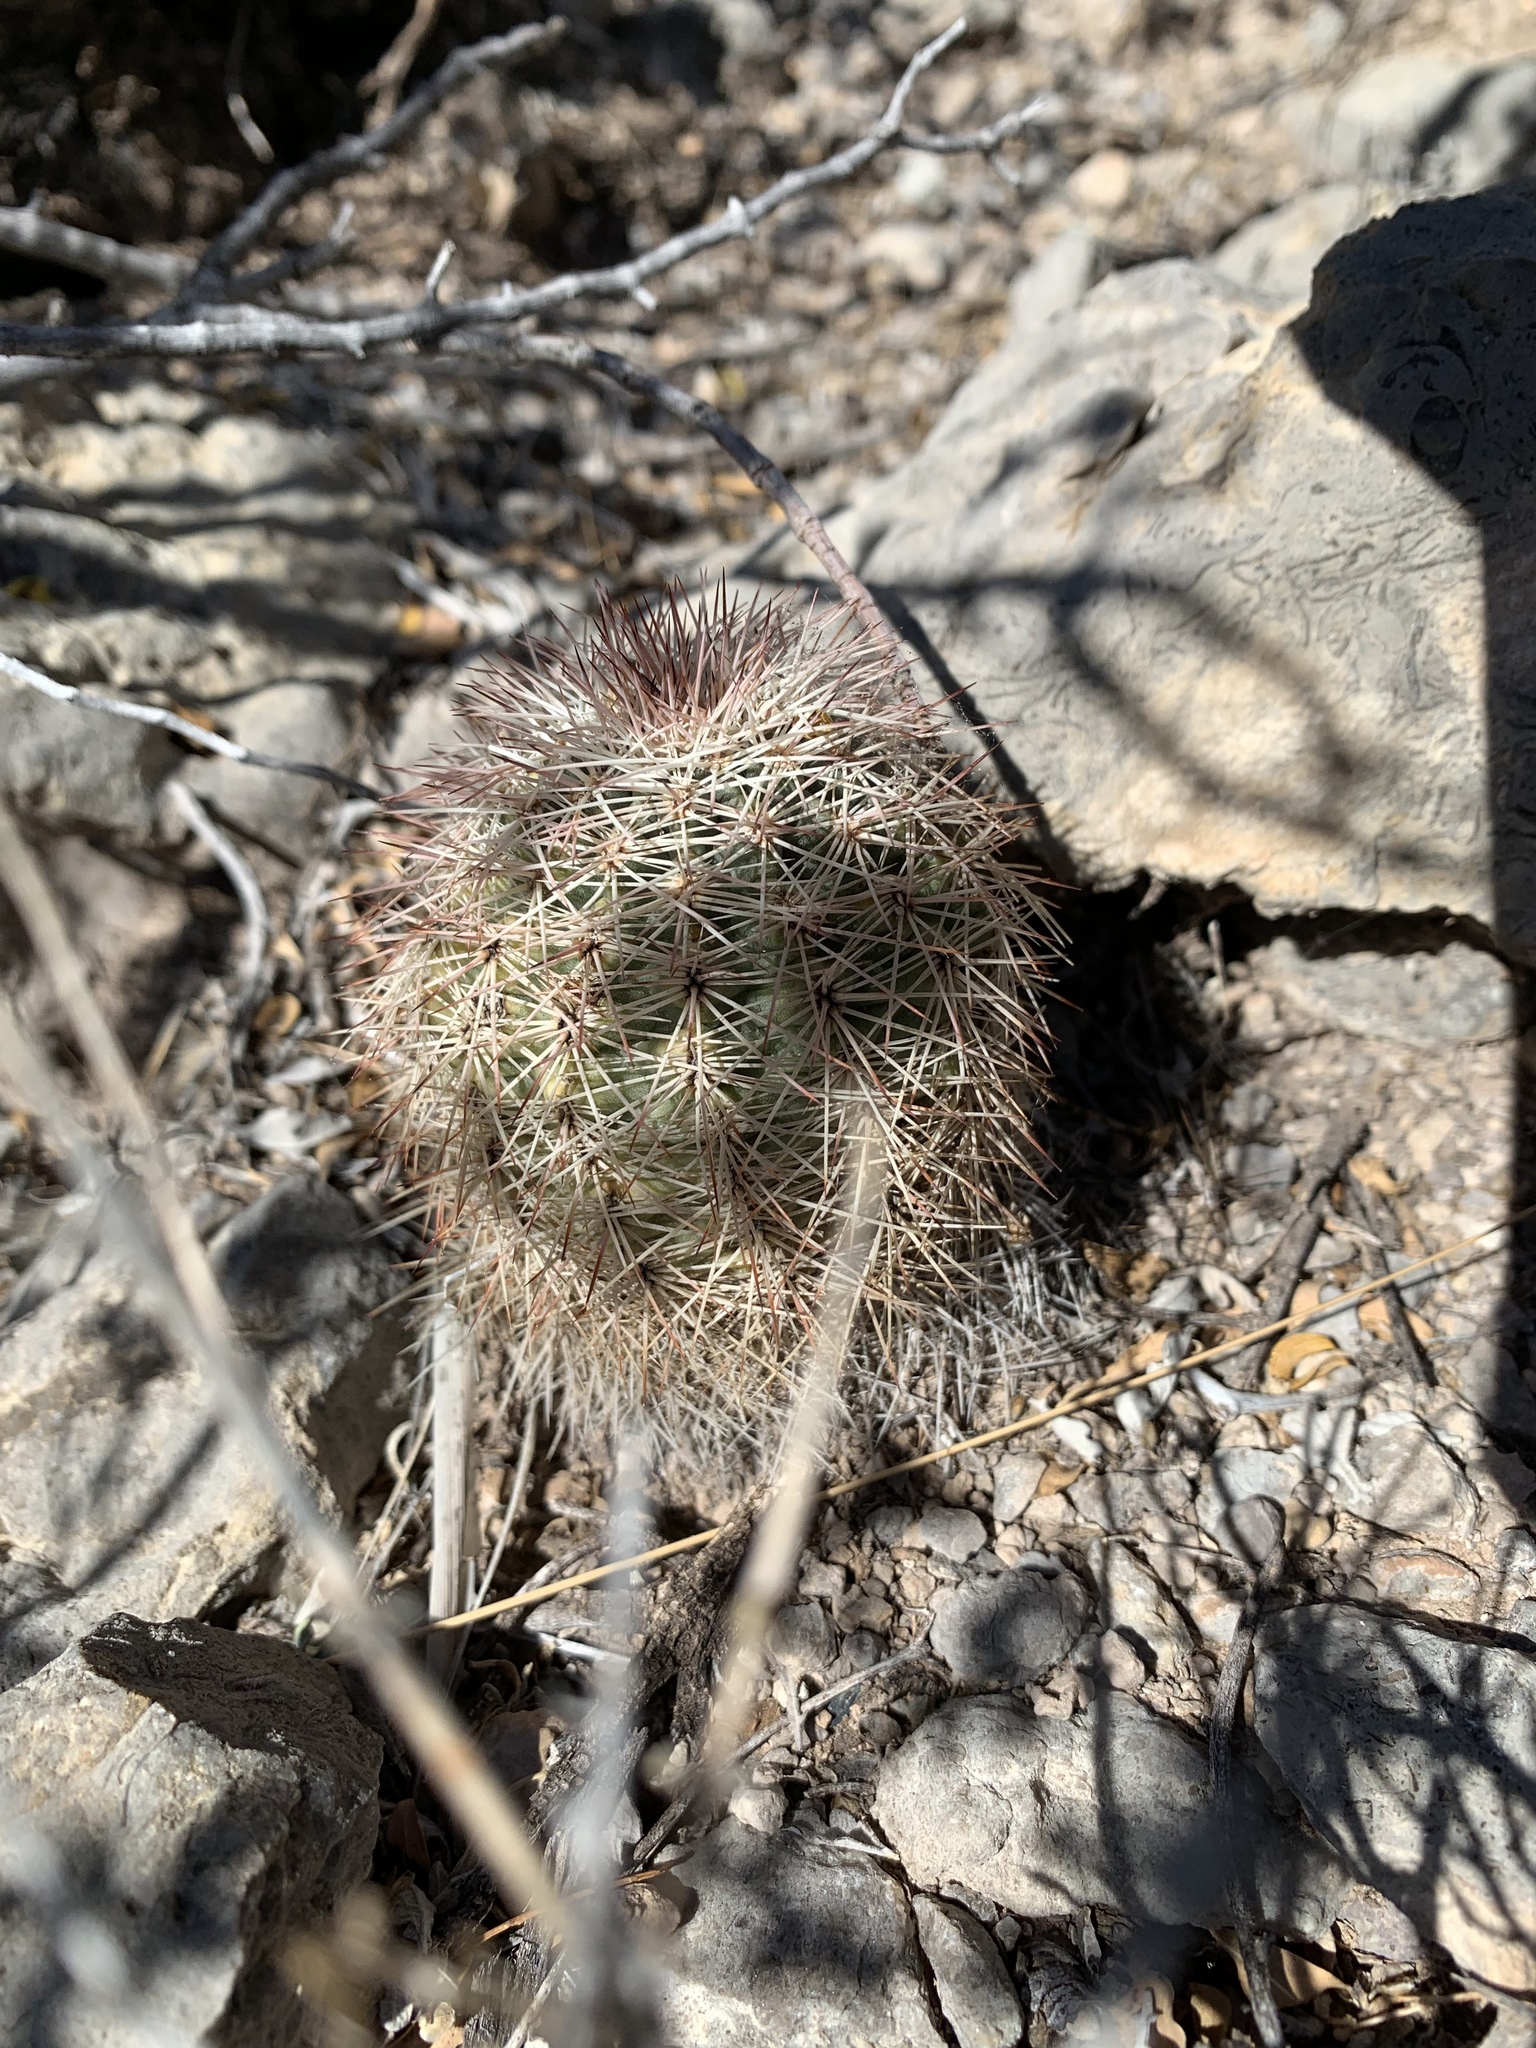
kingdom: Plantae
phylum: Tracheophyta
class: Magnoliopsida
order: Caryophyllales
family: Cactaceae
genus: Echinocereus
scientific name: Echinocereus dasyacanthus
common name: Spiny hedgehog cactus
